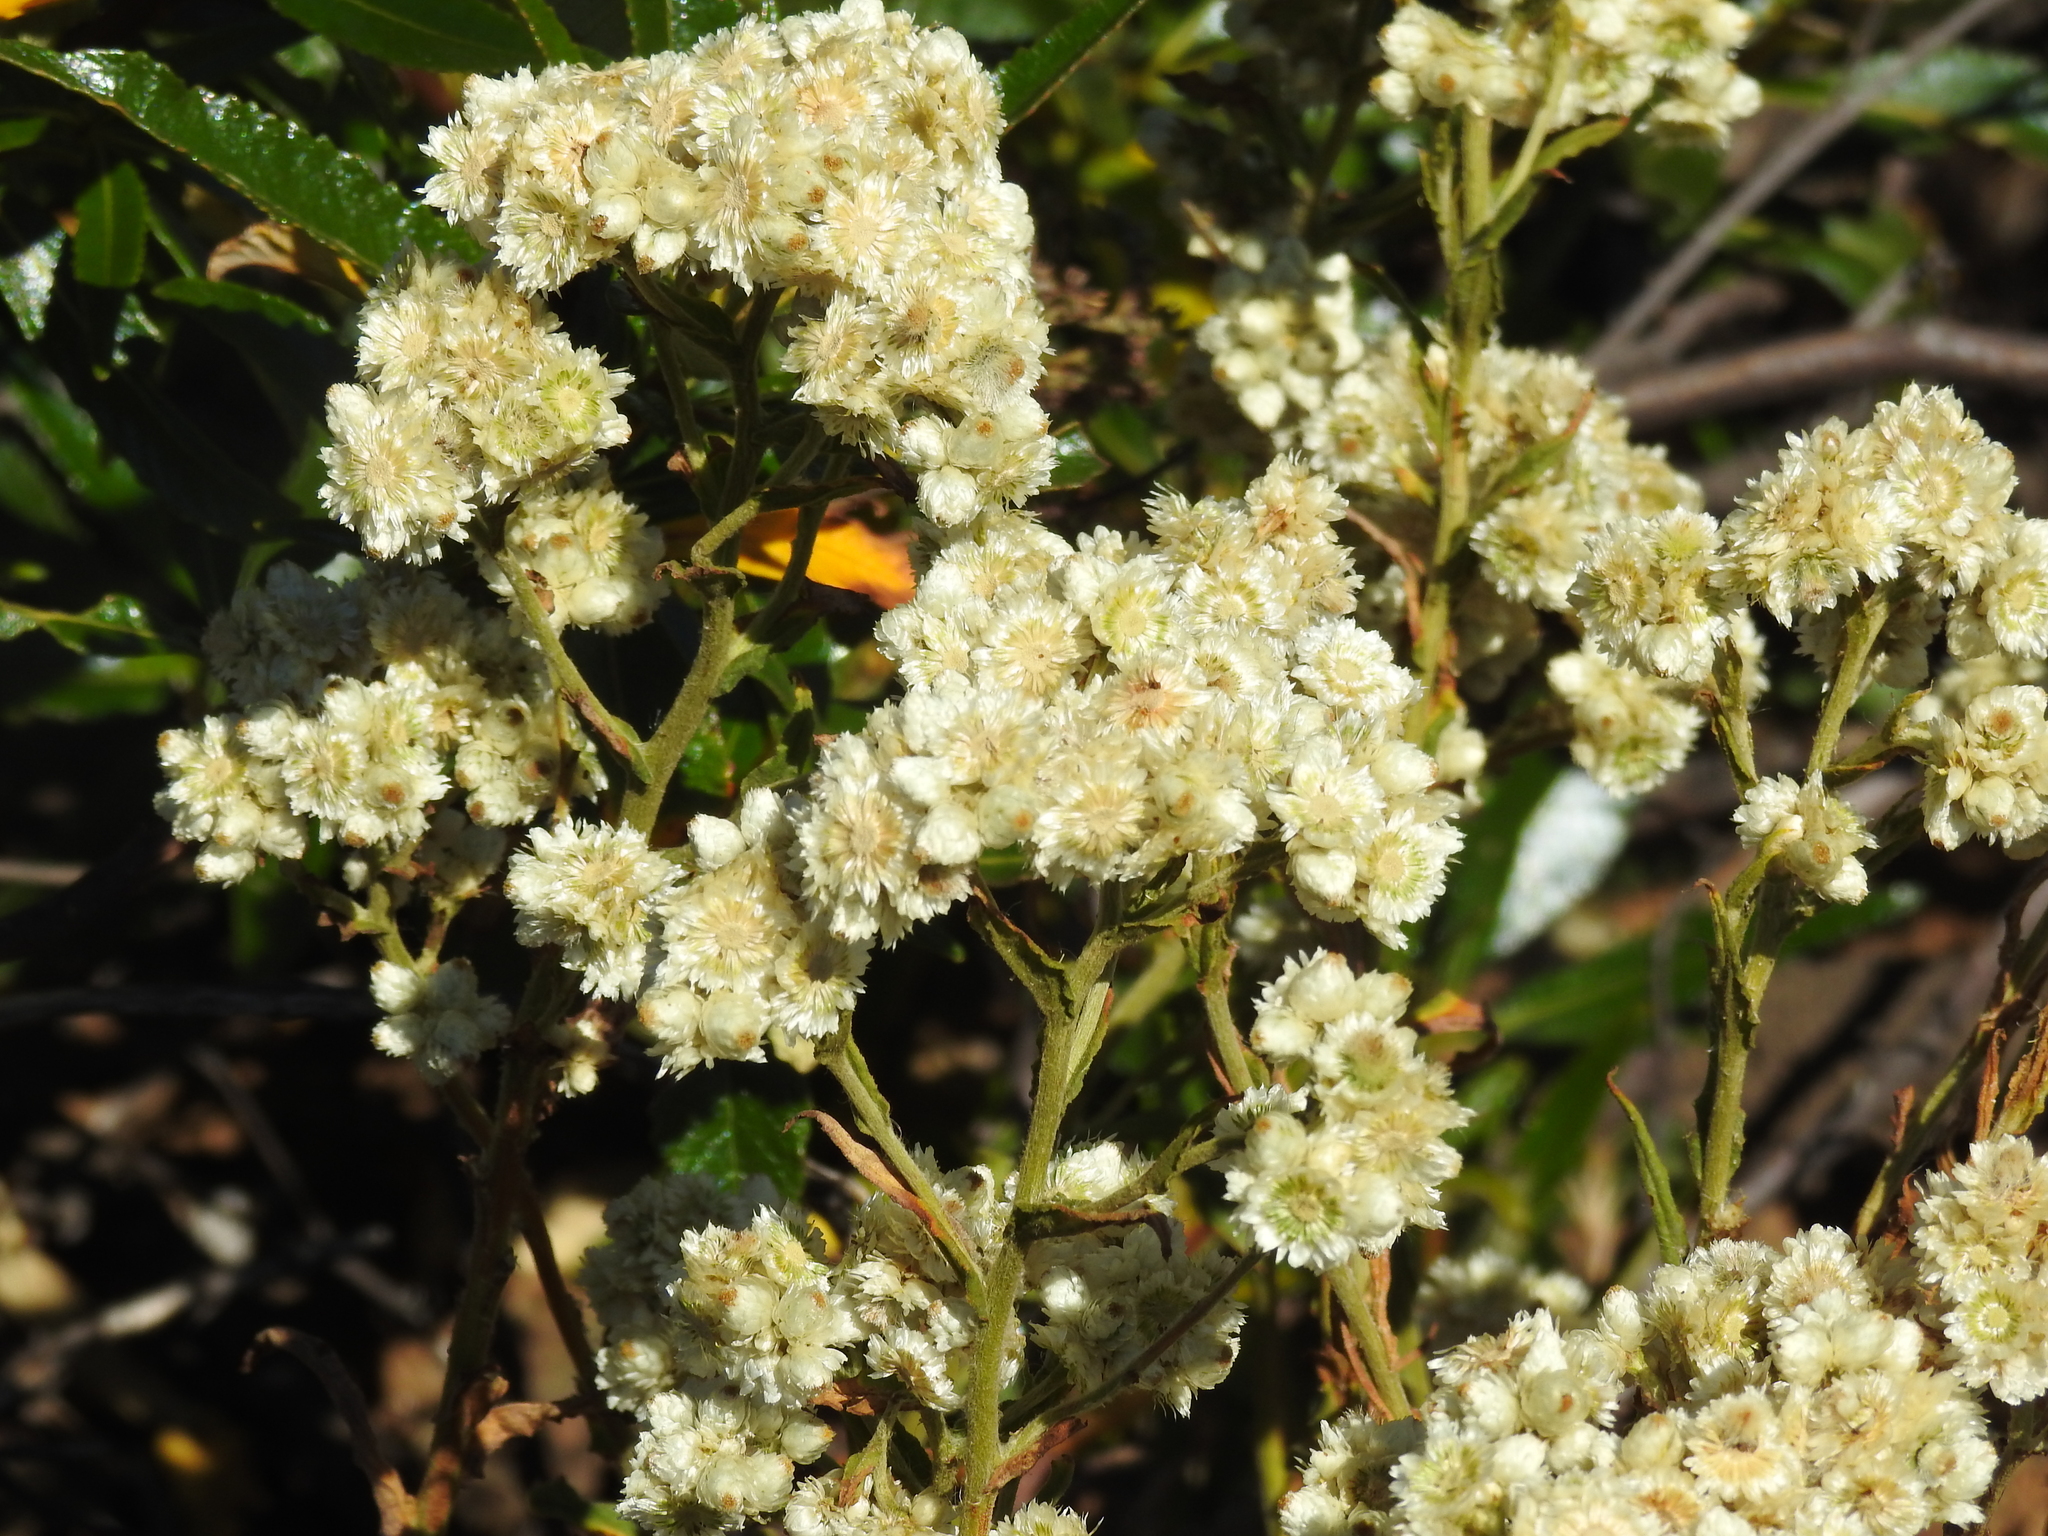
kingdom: Plantae
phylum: Tracheophyta
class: Magnoliopsida
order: Asterales
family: Asteraceae
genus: Pseudognaphalium
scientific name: Pseudognaphalium californicum
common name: California rabbit-tobacco
